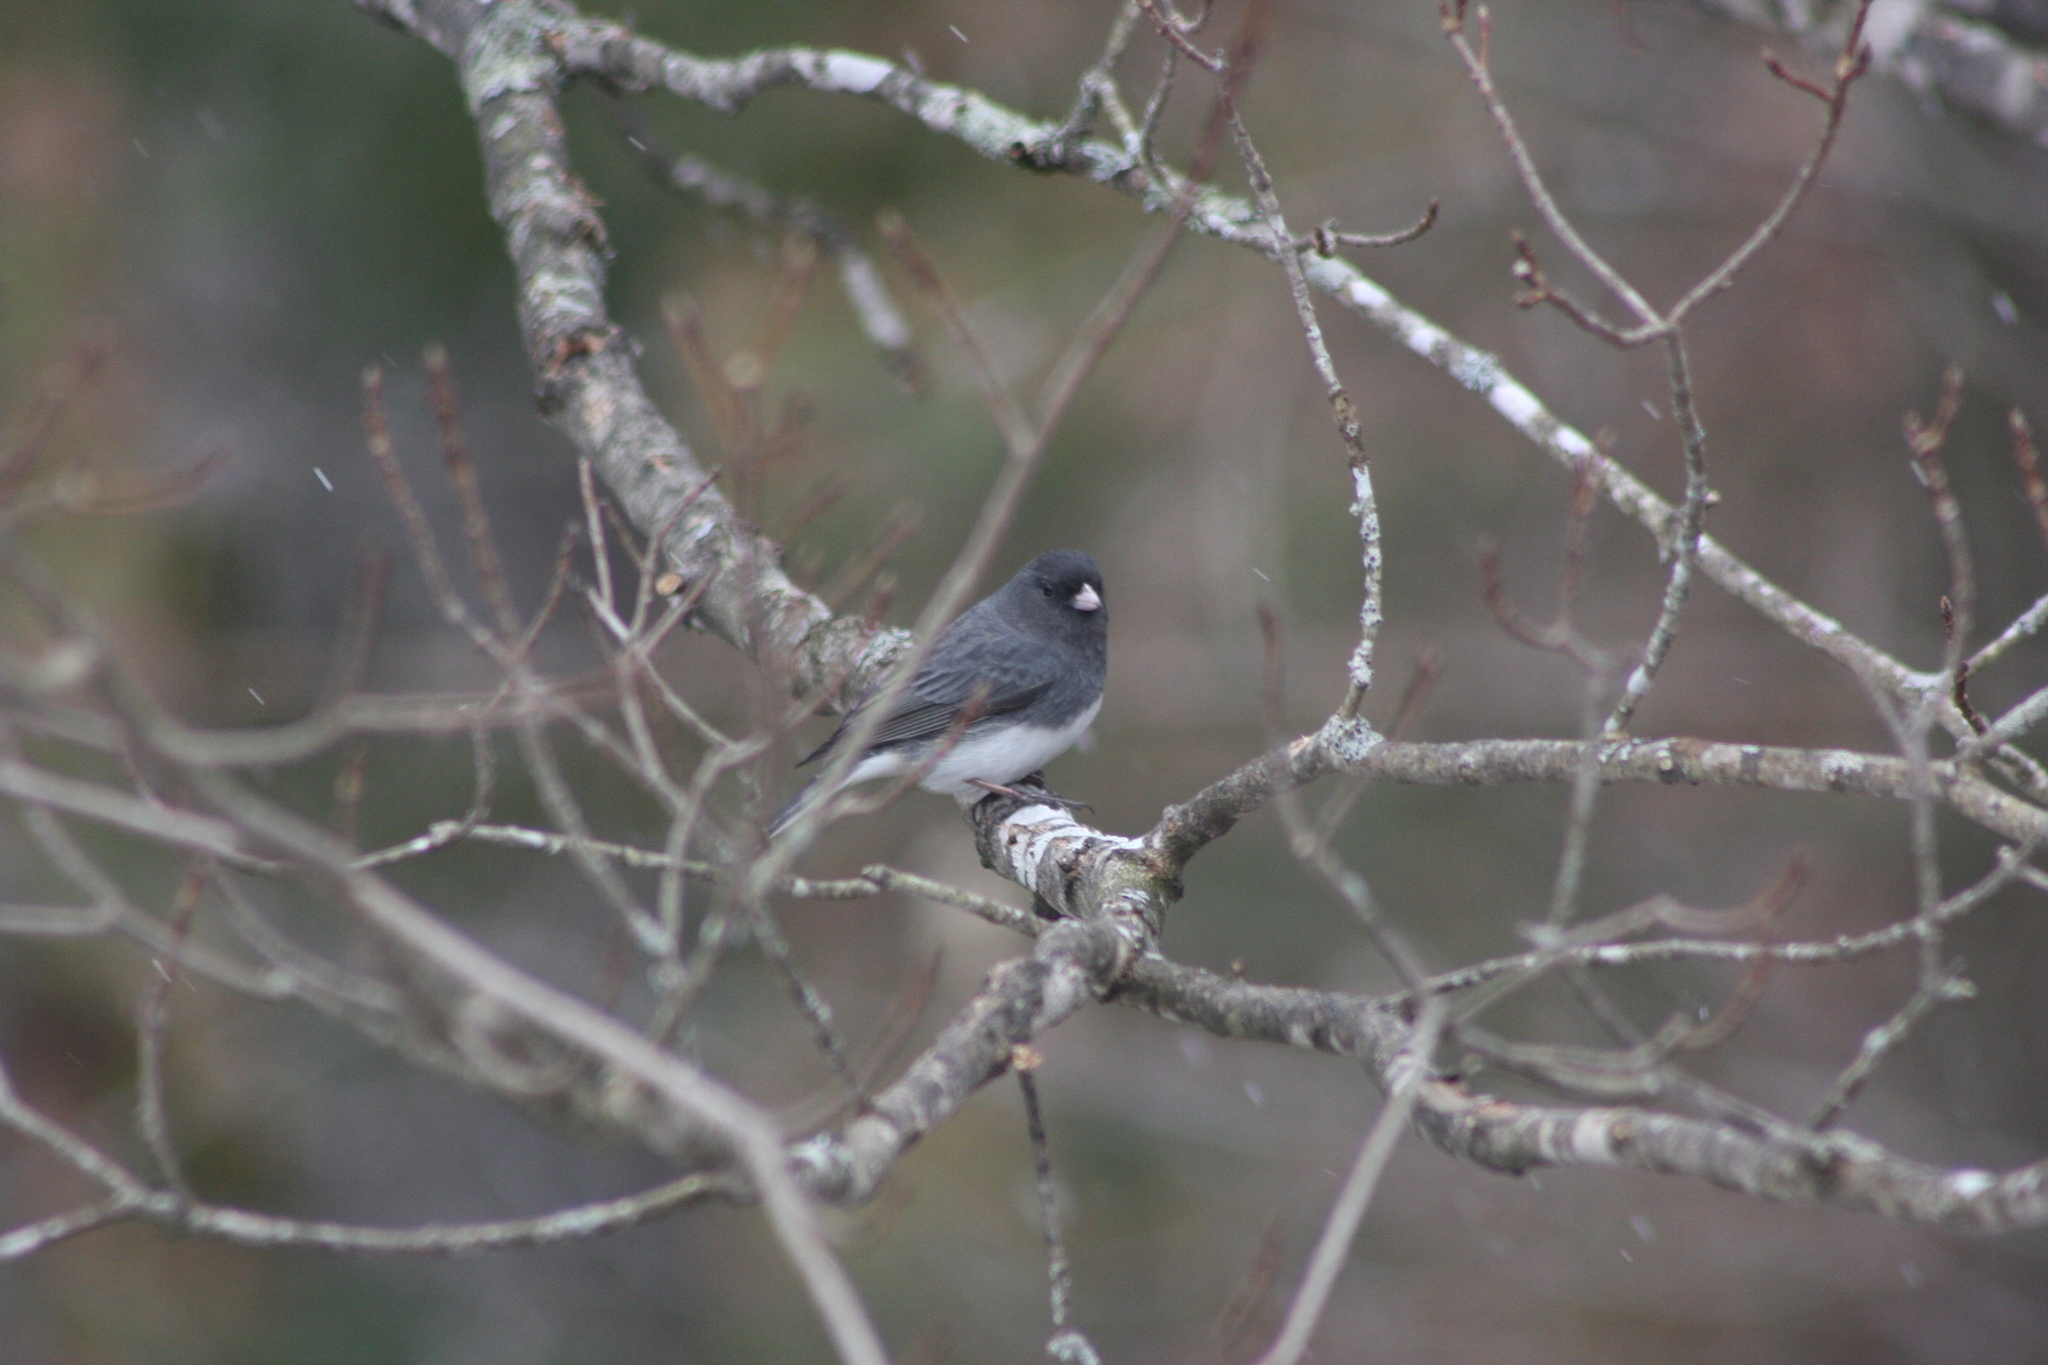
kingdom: Animalia
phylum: Chordata
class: Aves
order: Passeriformes
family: Passerellidae
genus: Junco
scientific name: Junco hyemalis
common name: Dark-eyed junco
